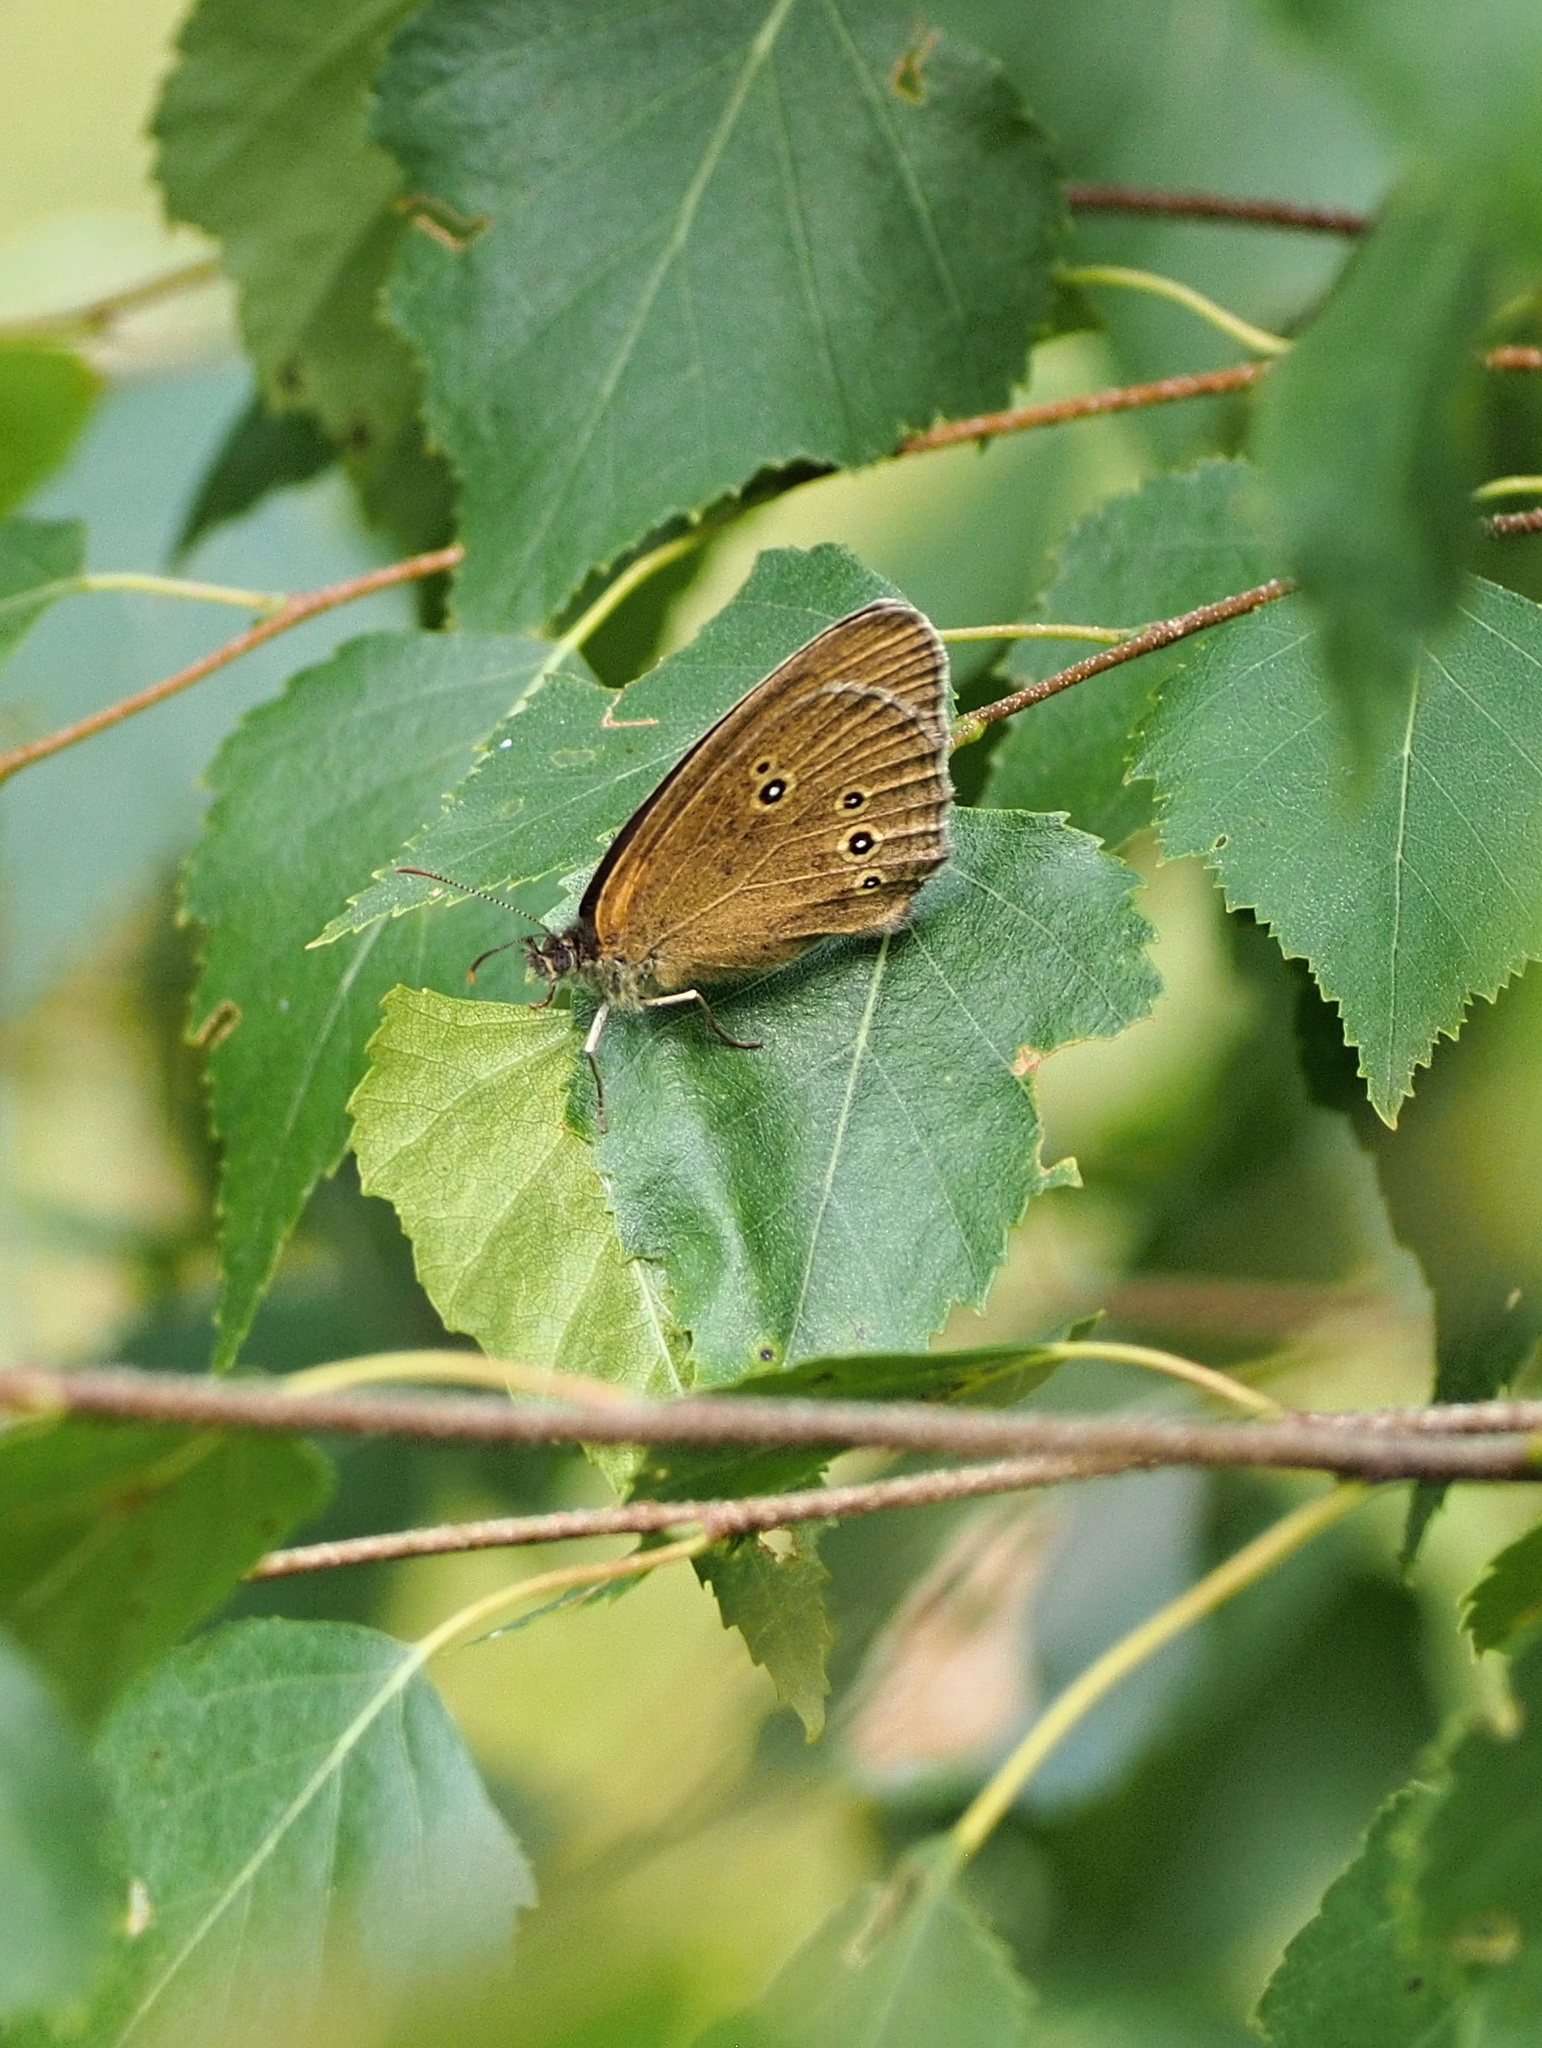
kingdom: Animalia
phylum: Arthropoda
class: Insecta
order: Lepidoptera
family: Nymphalidae
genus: Aphantopus
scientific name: Aphantopus hyperantus
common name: Ringlet
